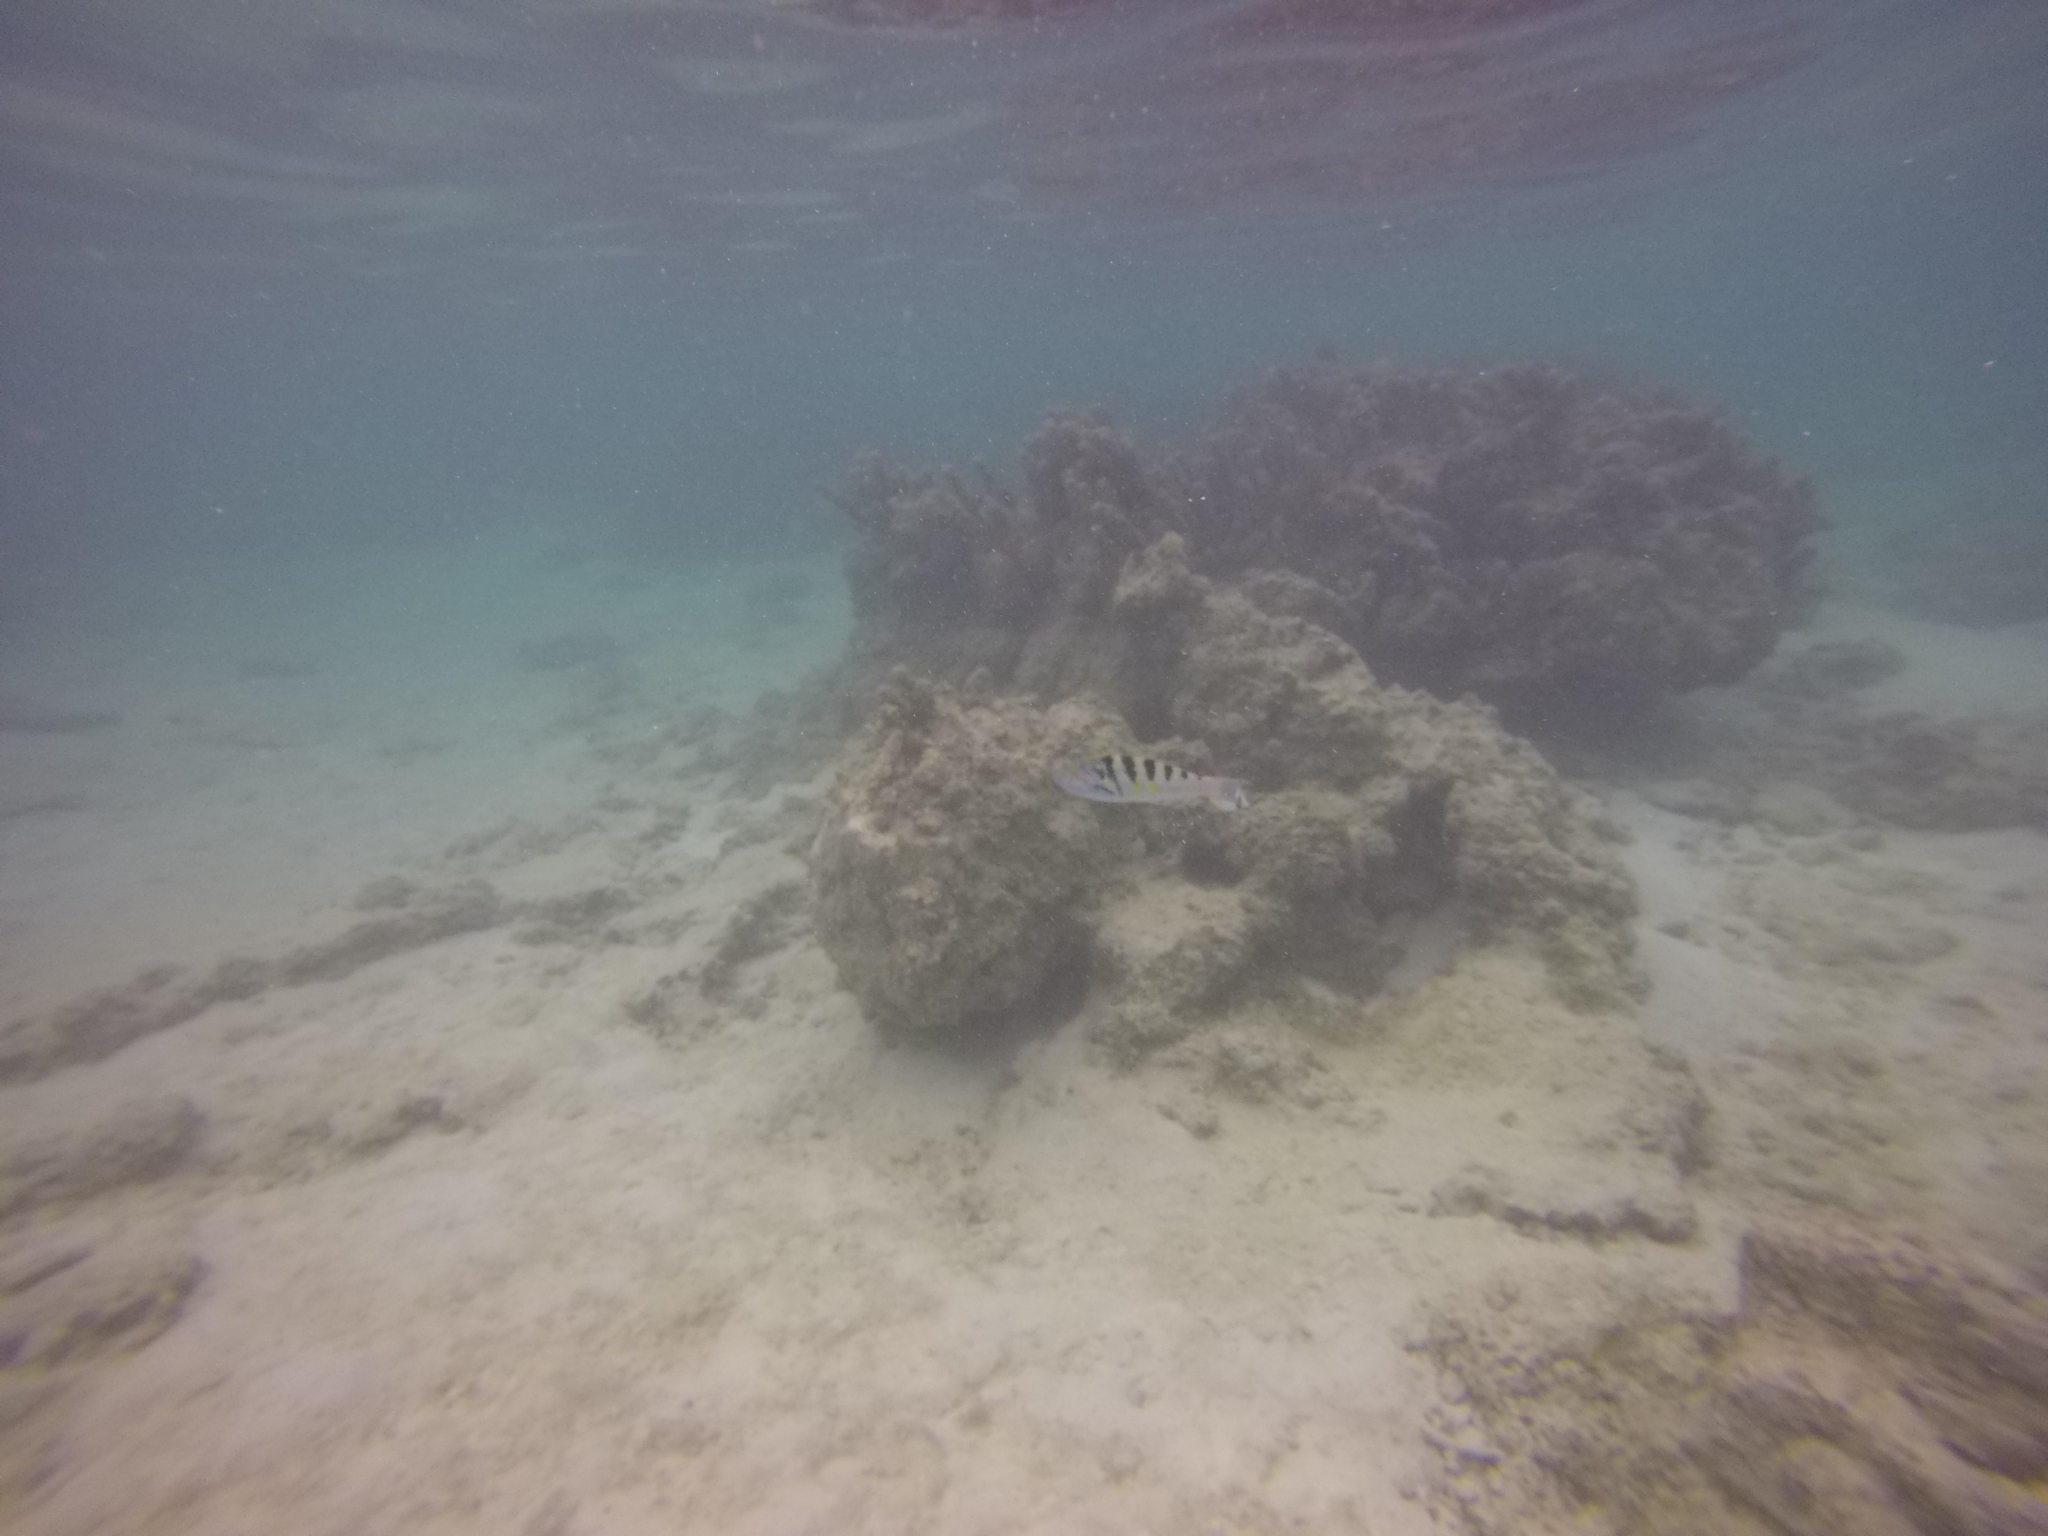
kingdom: Animalia
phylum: Chordata
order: Perciformes
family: Labridae
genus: Thalassoma
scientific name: Thalassoma hardwicke
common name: Sixbar wrasse
